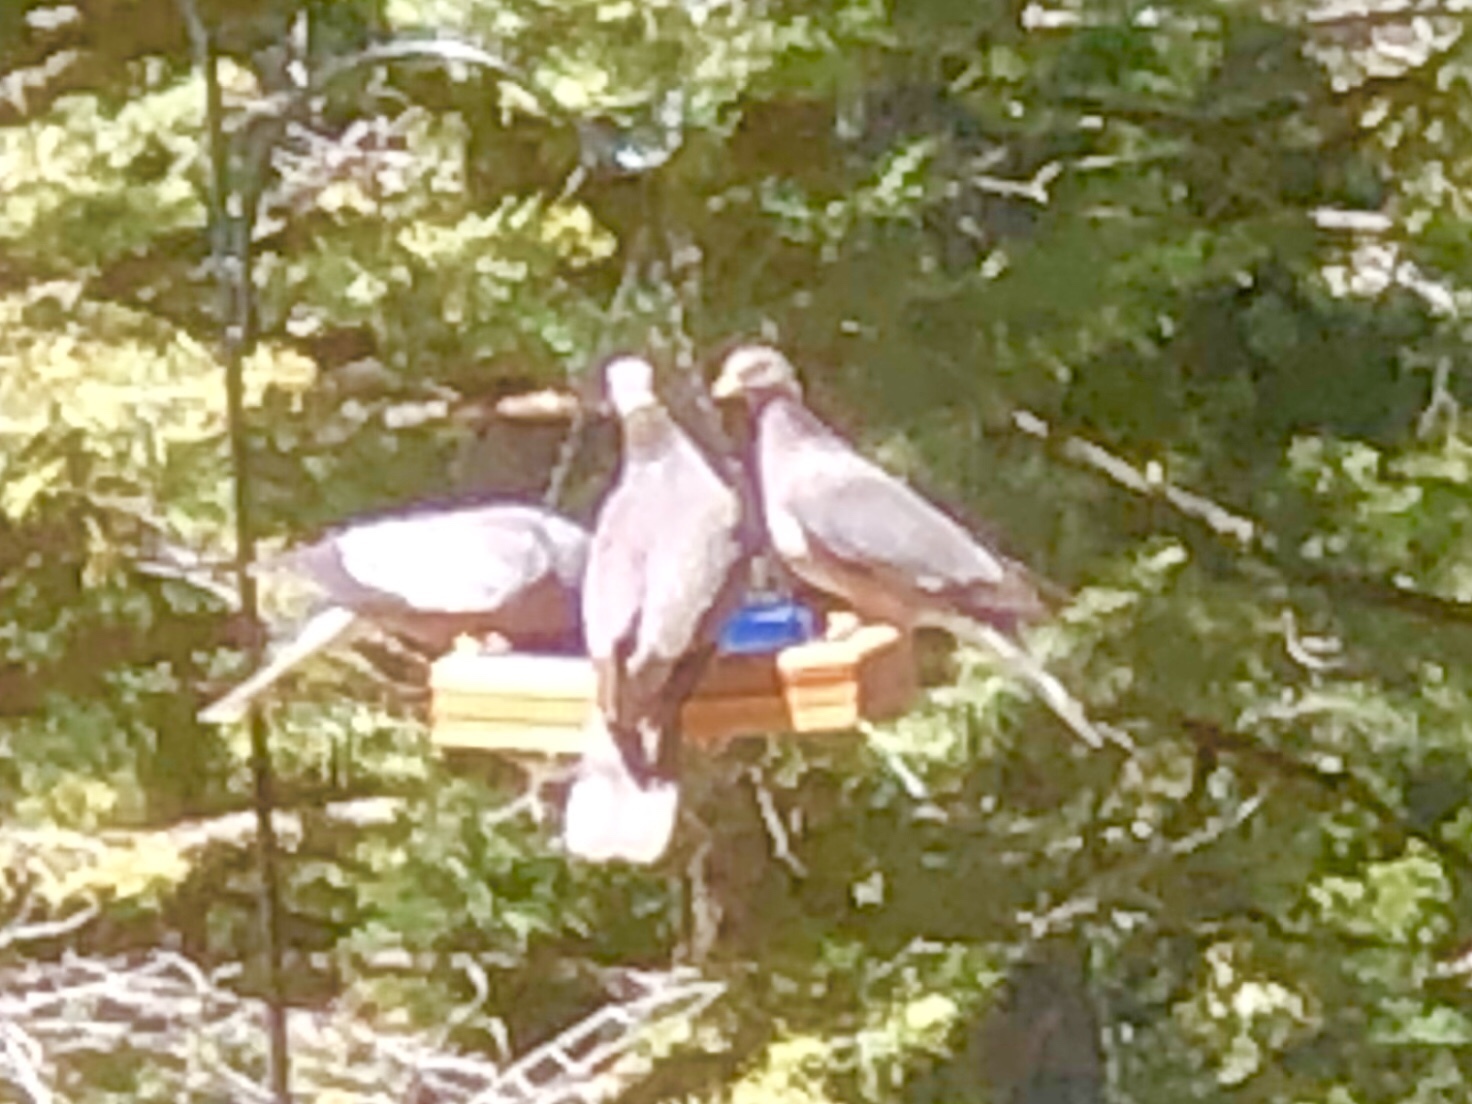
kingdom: Animalia
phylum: Chordata
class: Aves
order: Columbiformes
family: Columbidae
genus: Patagioenas
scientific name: Patagioenas fasciata
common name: Band-tailed pigeon
